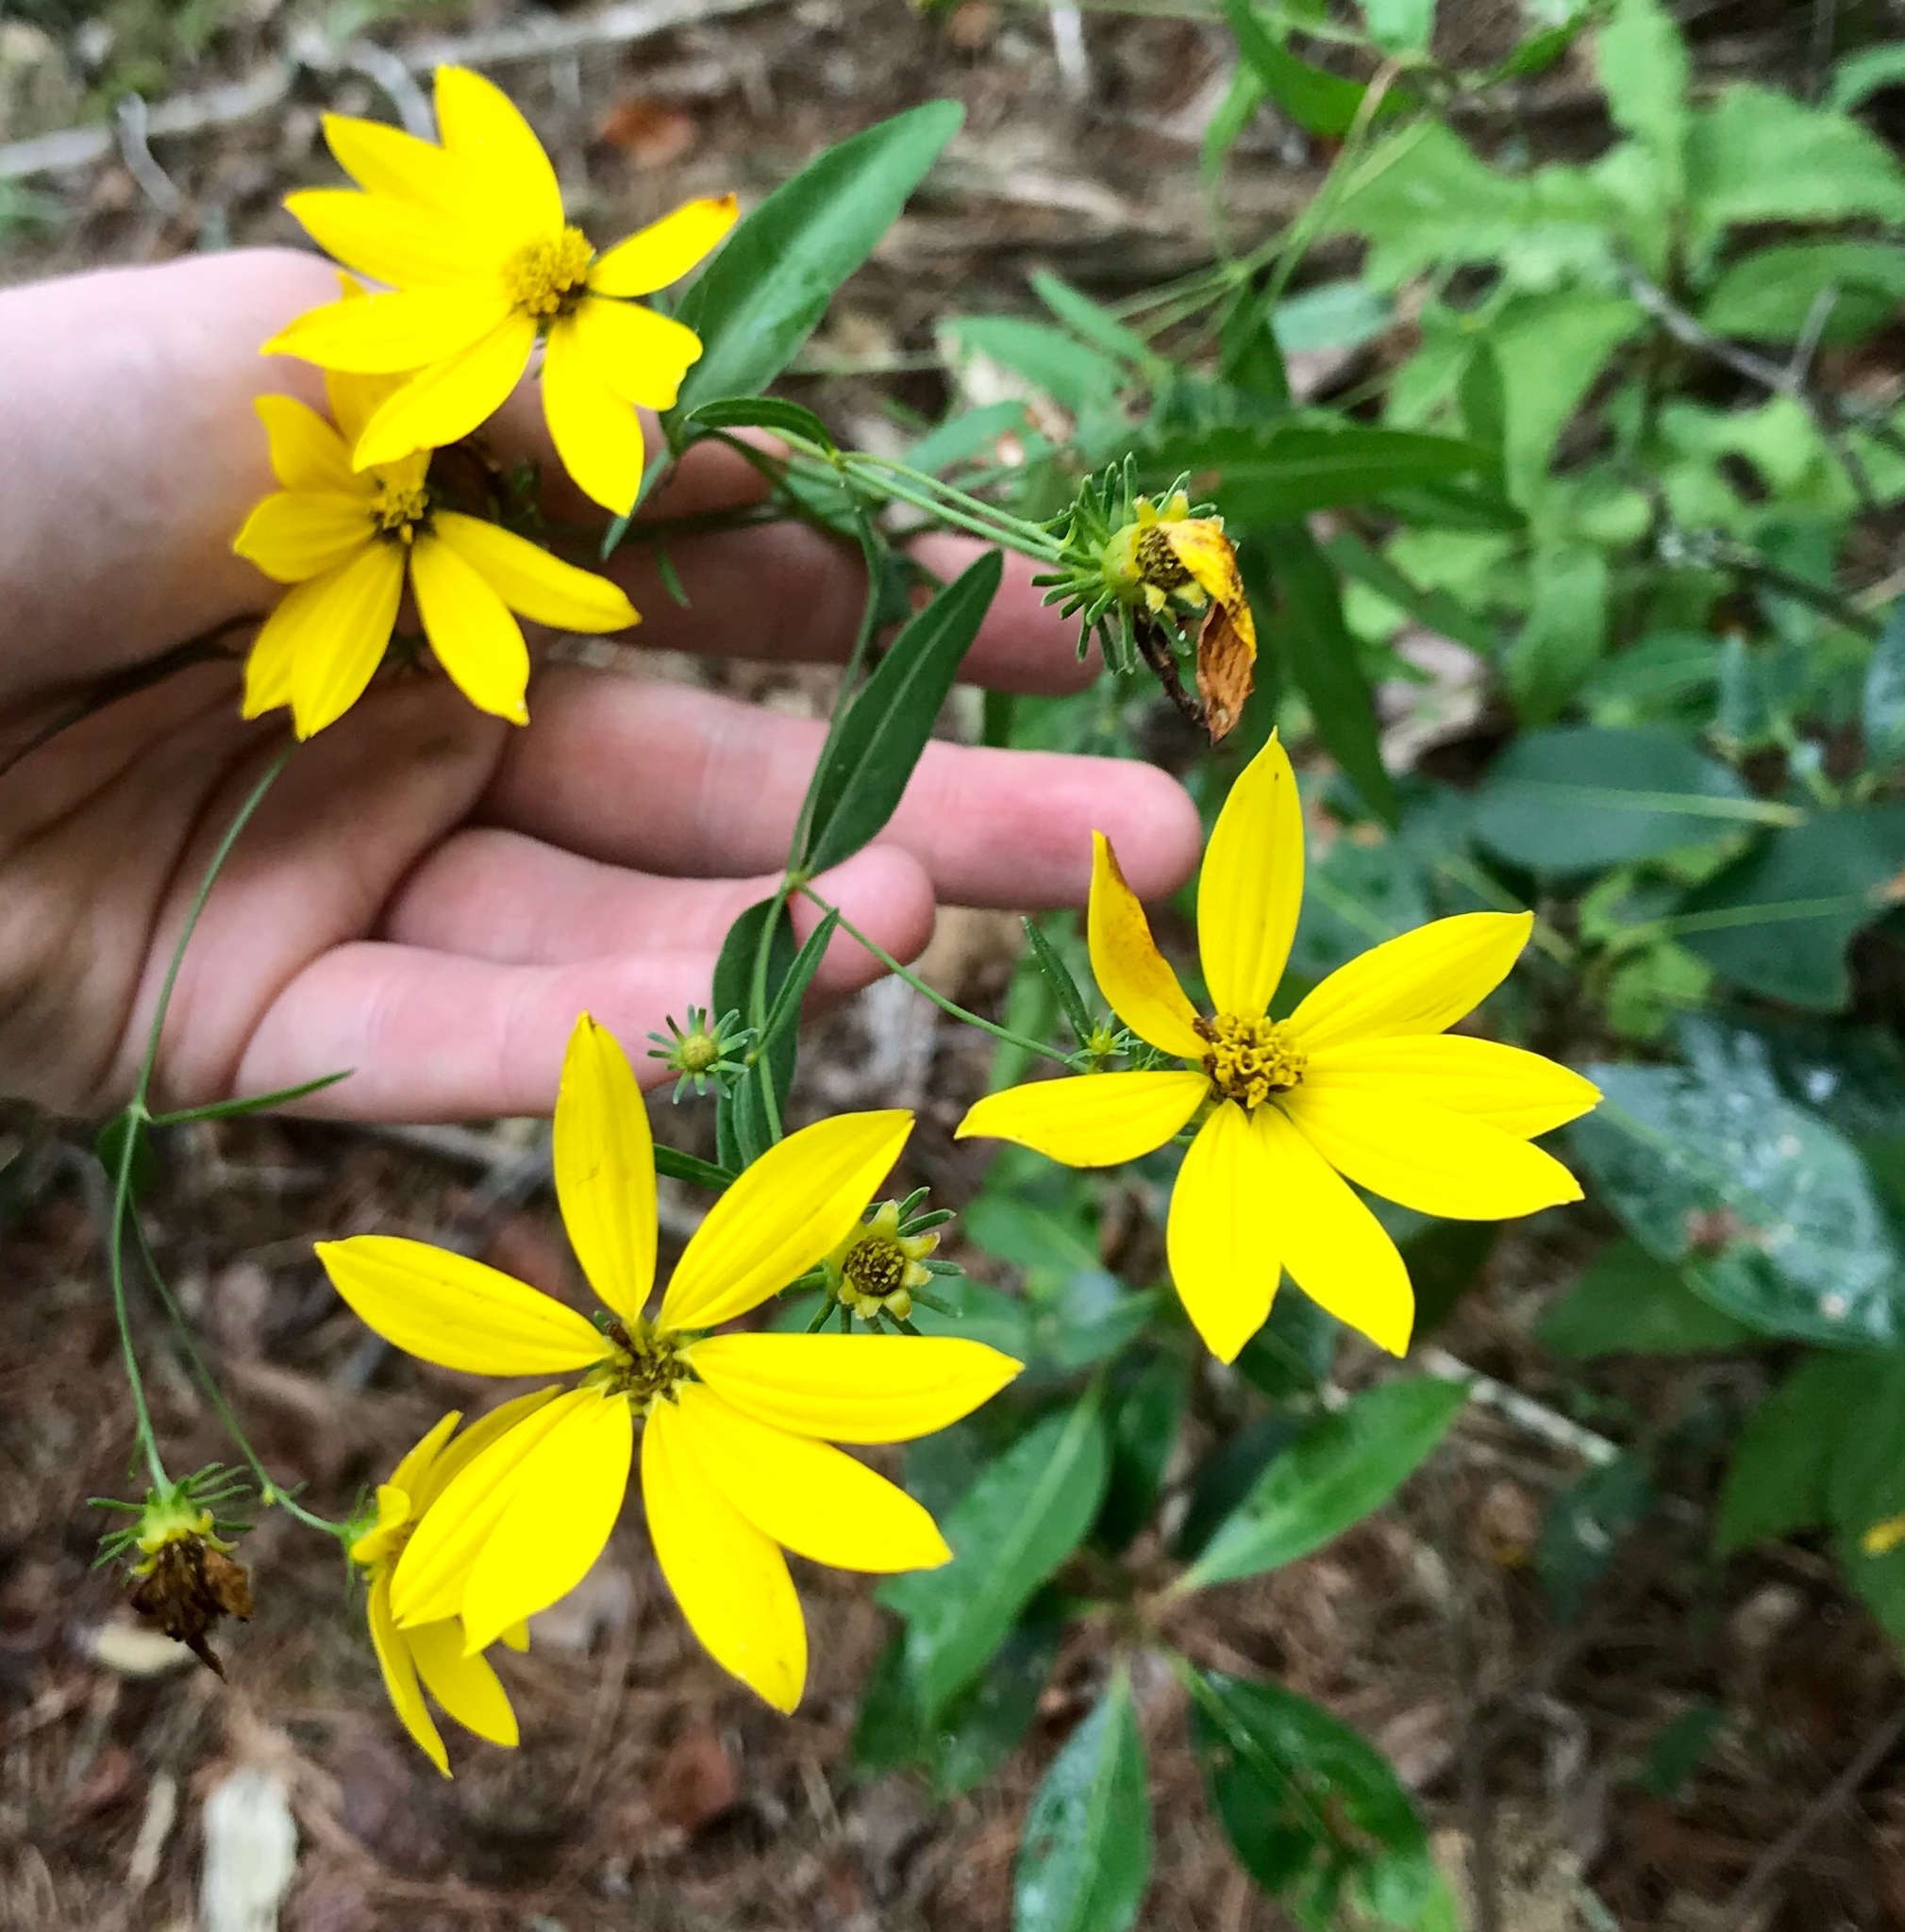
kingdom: Plantae
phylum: Tracheophyta
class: Magnoliopsida
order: Asterales
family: Asteraceae
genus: Coreopsis
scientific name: Coreopsis major
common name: Forest tickseed
